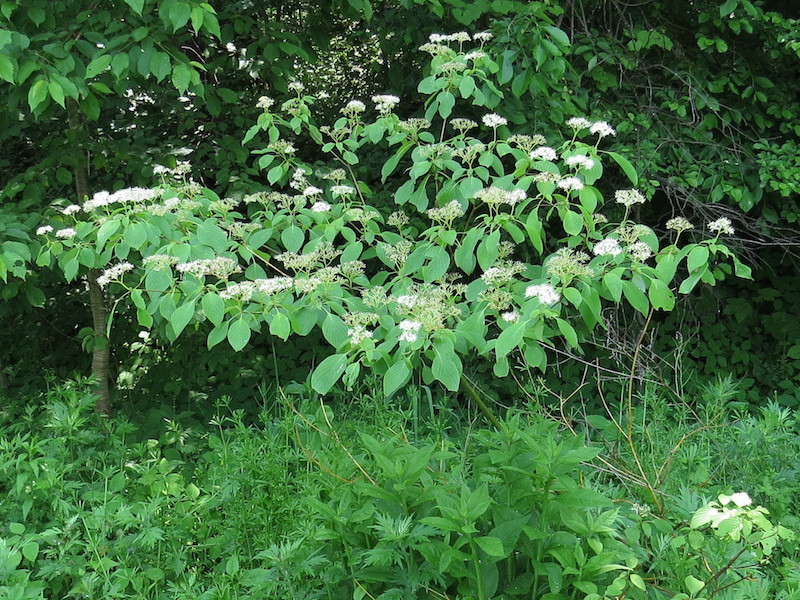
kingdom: Plantae
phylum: Tracheophyta
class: Magnoliopsida
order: Cornales
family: Cornaceae
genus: Cornus
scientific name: Cornus alternifolia
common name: Pagoda dogwood
